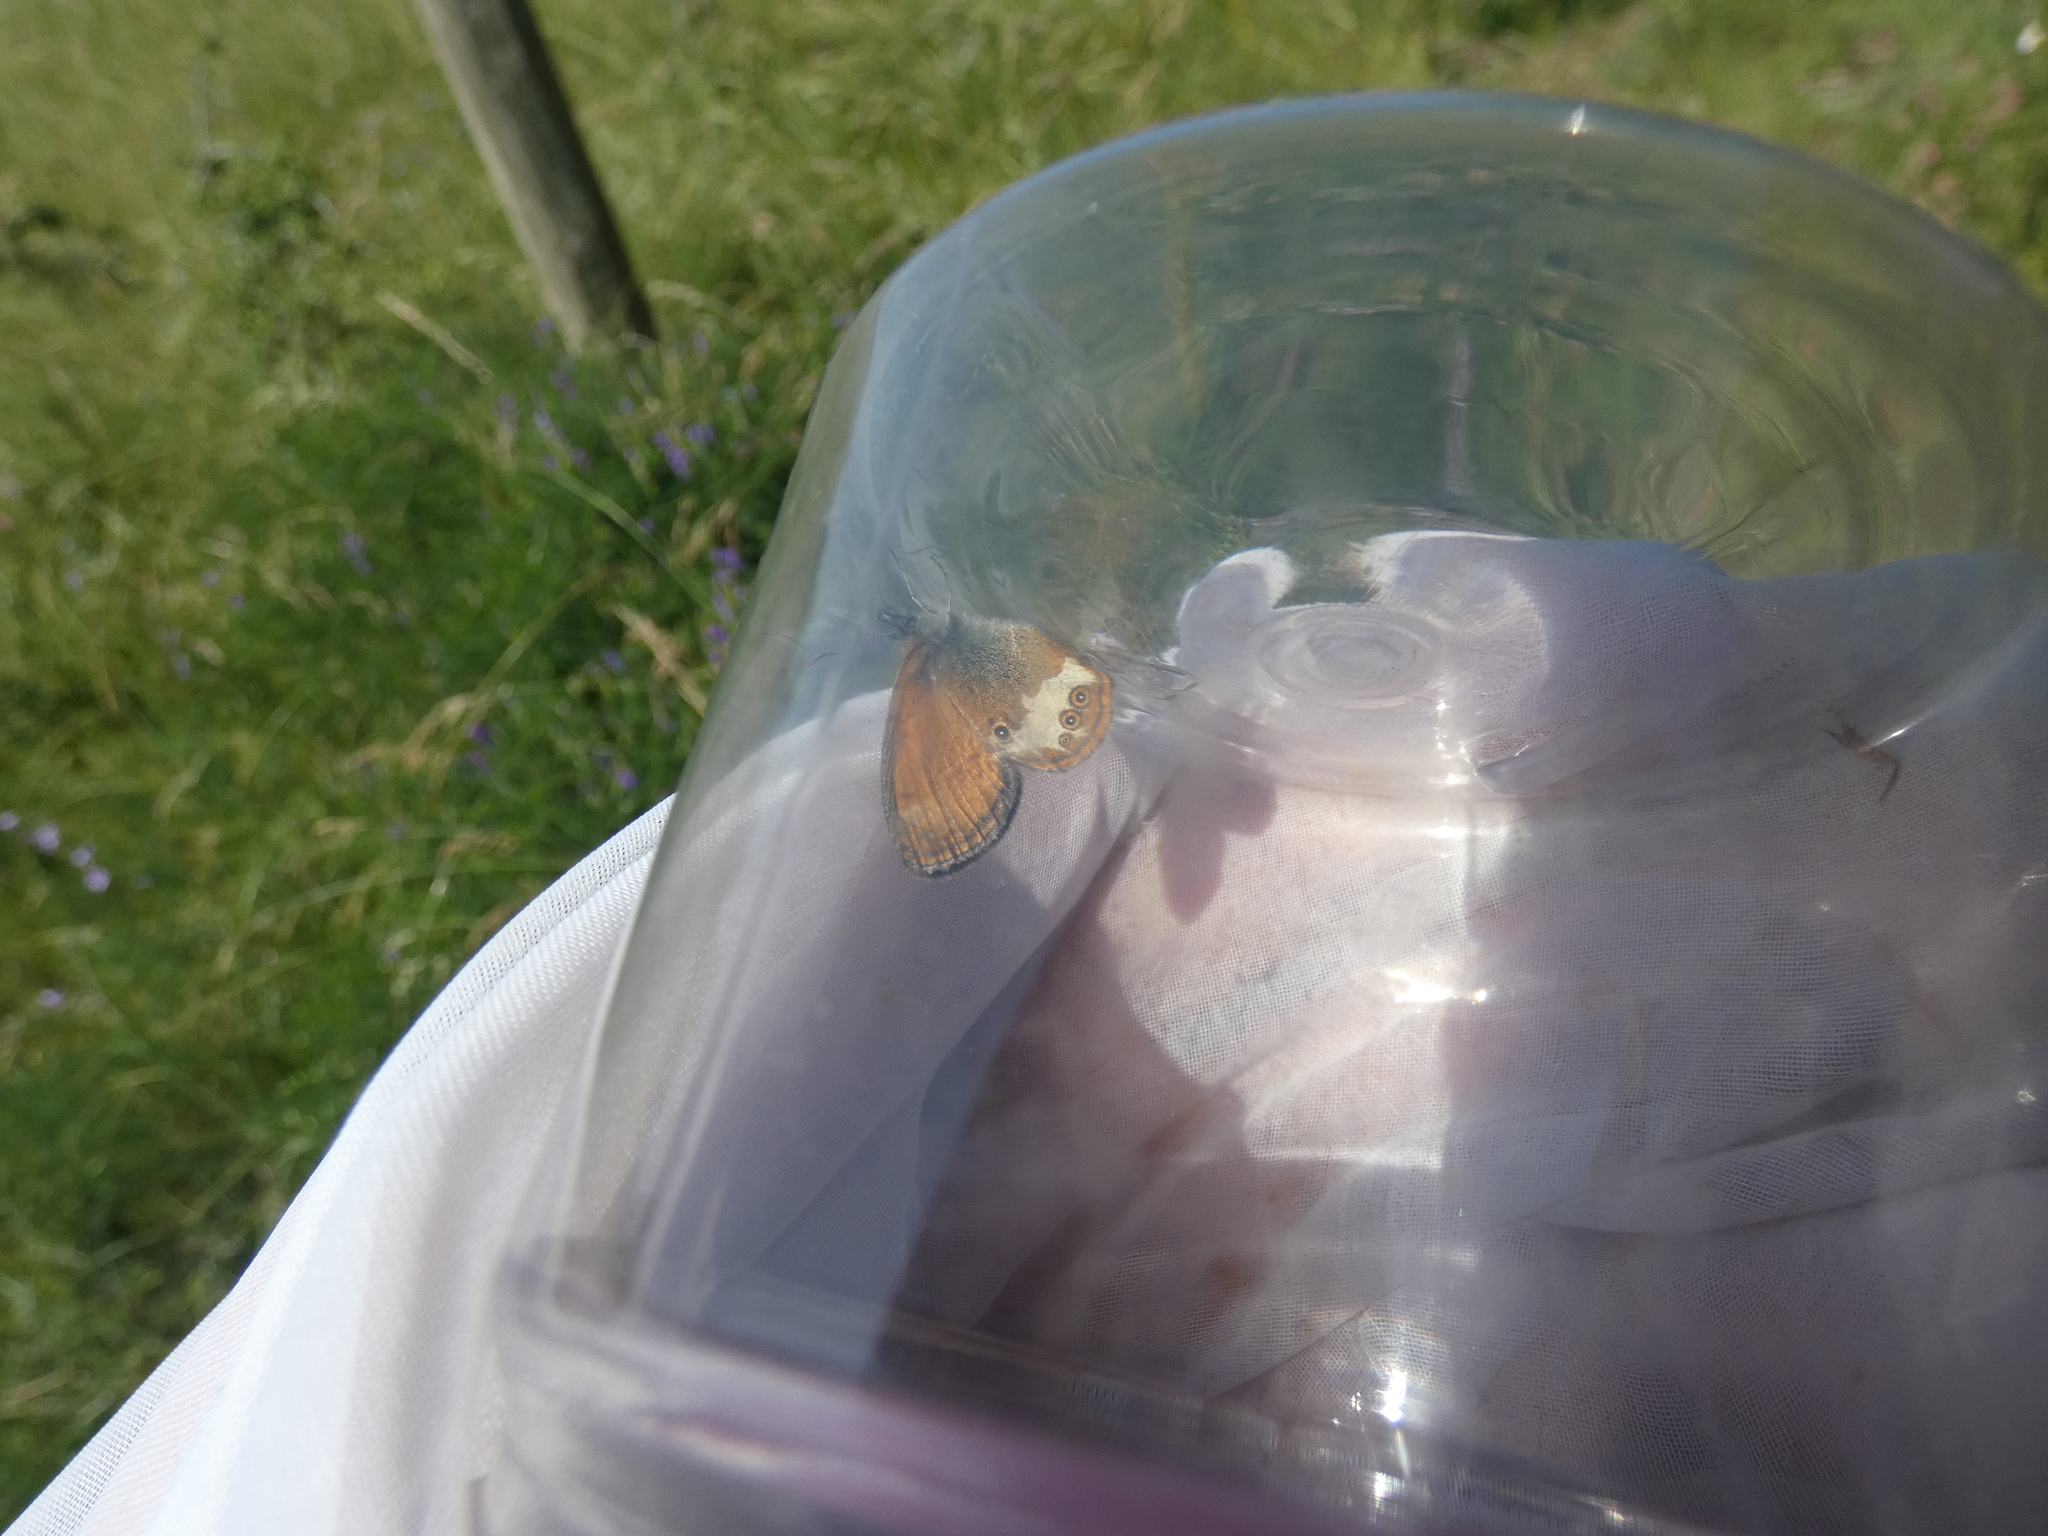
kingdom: Animalia
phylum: Arthropoda
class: Insecta
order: Lepidoptera
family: Nymphalidae
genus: Coenonympha
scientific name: Coenonympha arcania
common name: Pearly heath
